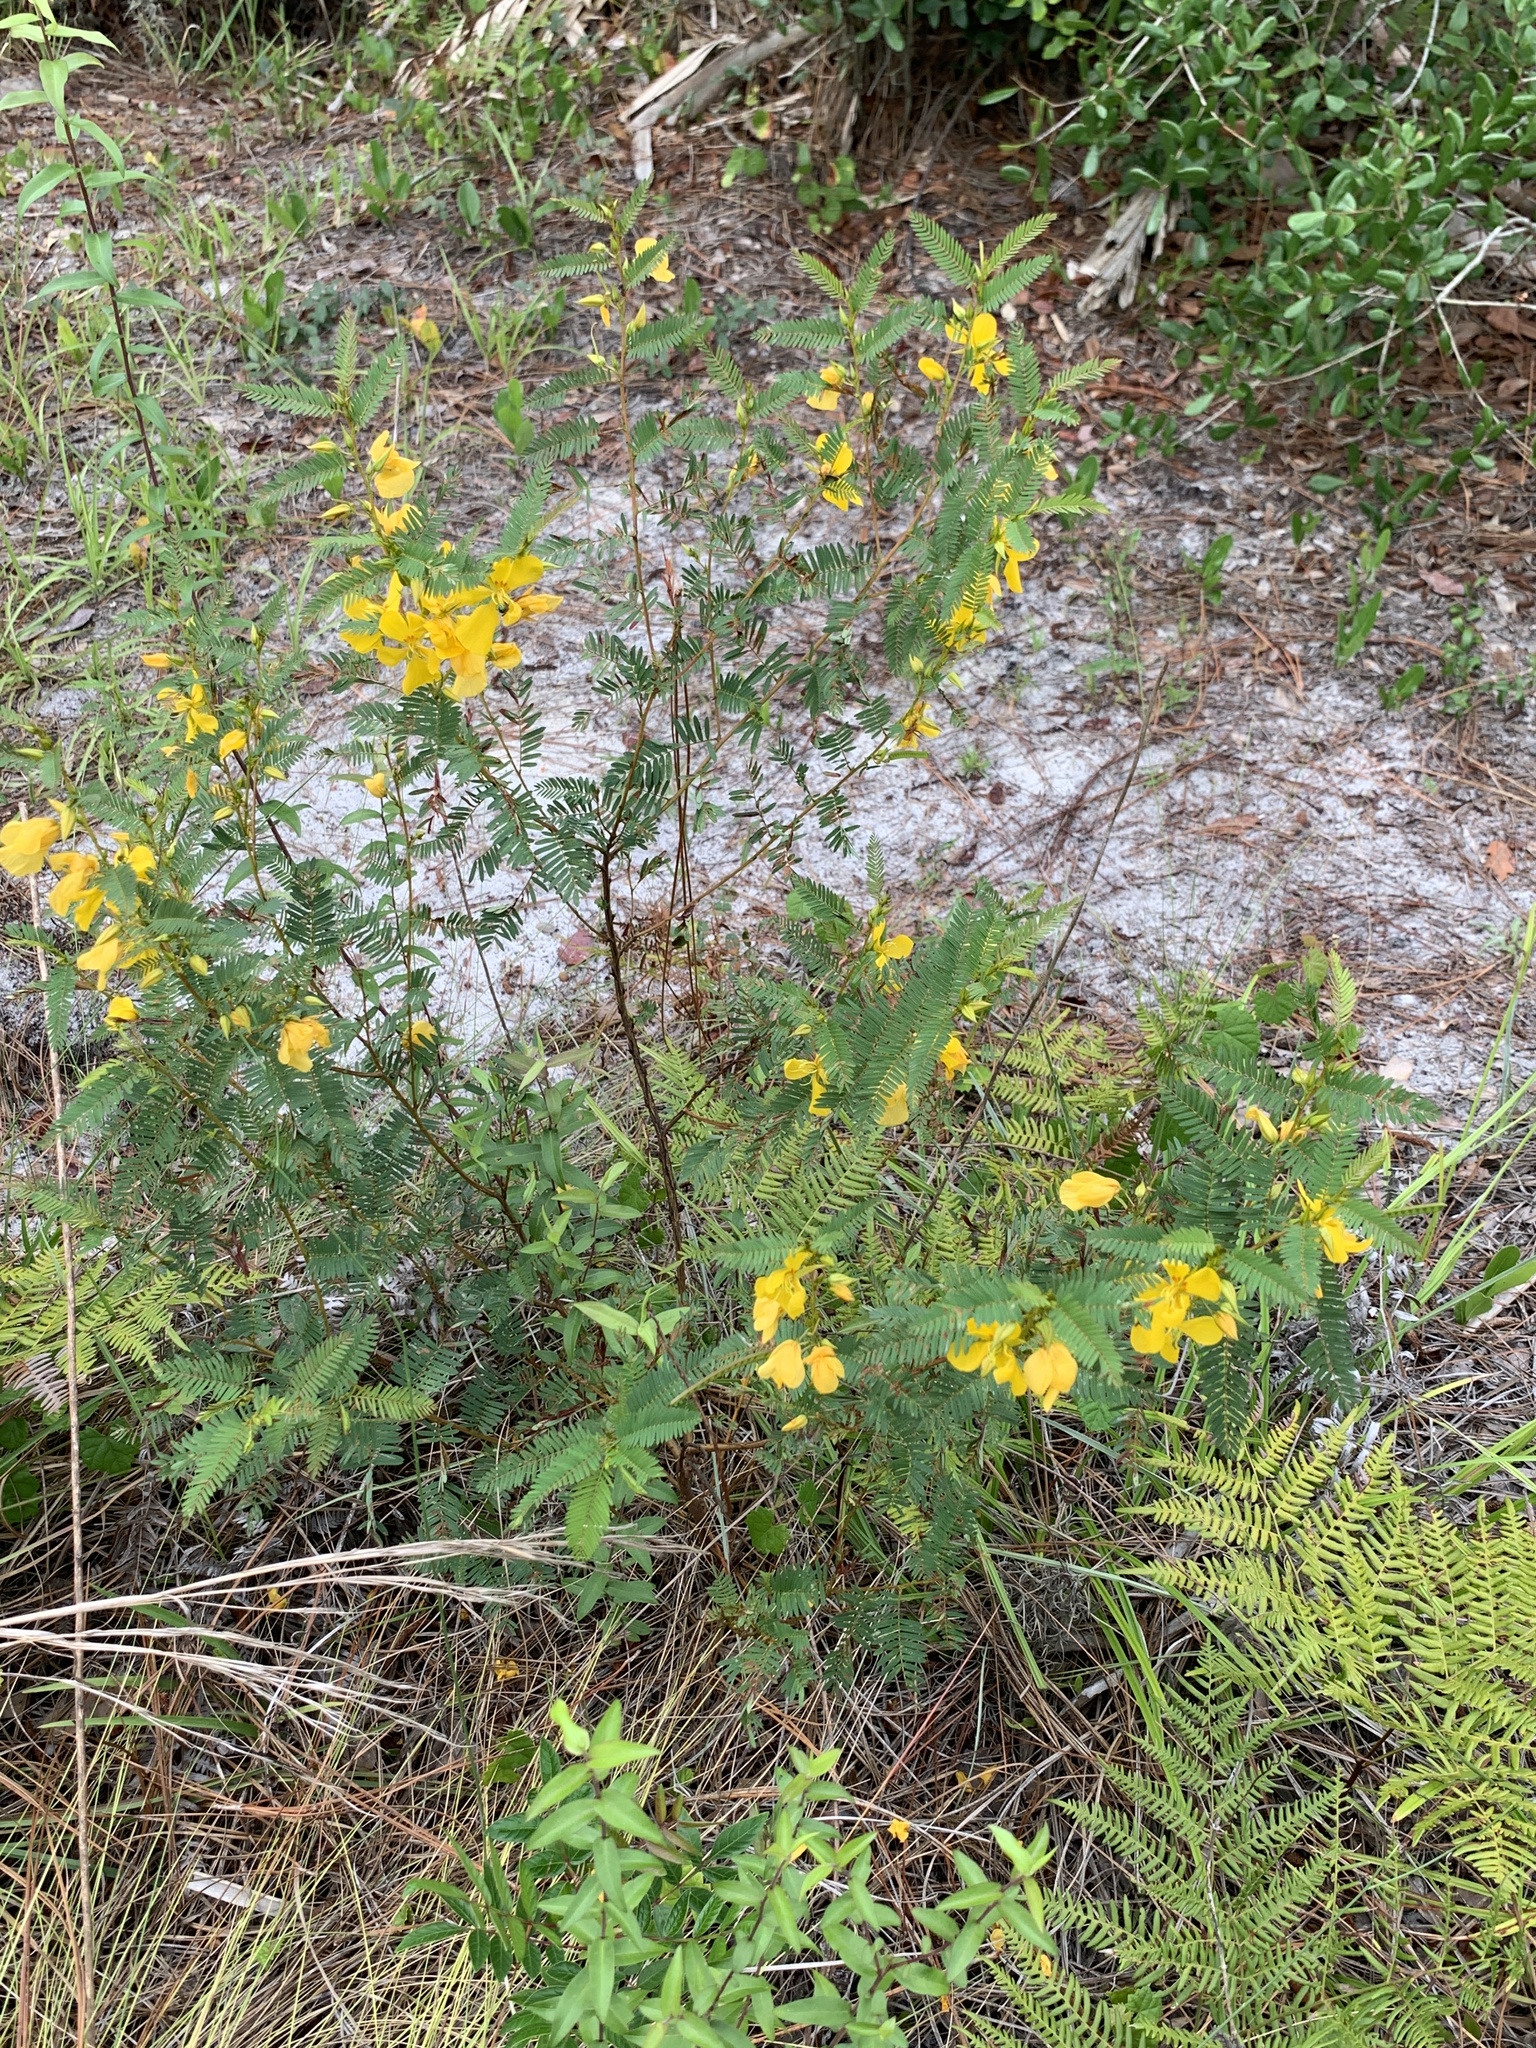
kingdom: Plantae
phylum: Tracheophyta
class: Magnoliopsida
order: Fabales
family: Fabaceae
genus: Chamaecrista
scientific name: Chamaecrista fasciculata
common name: Golden cassia
